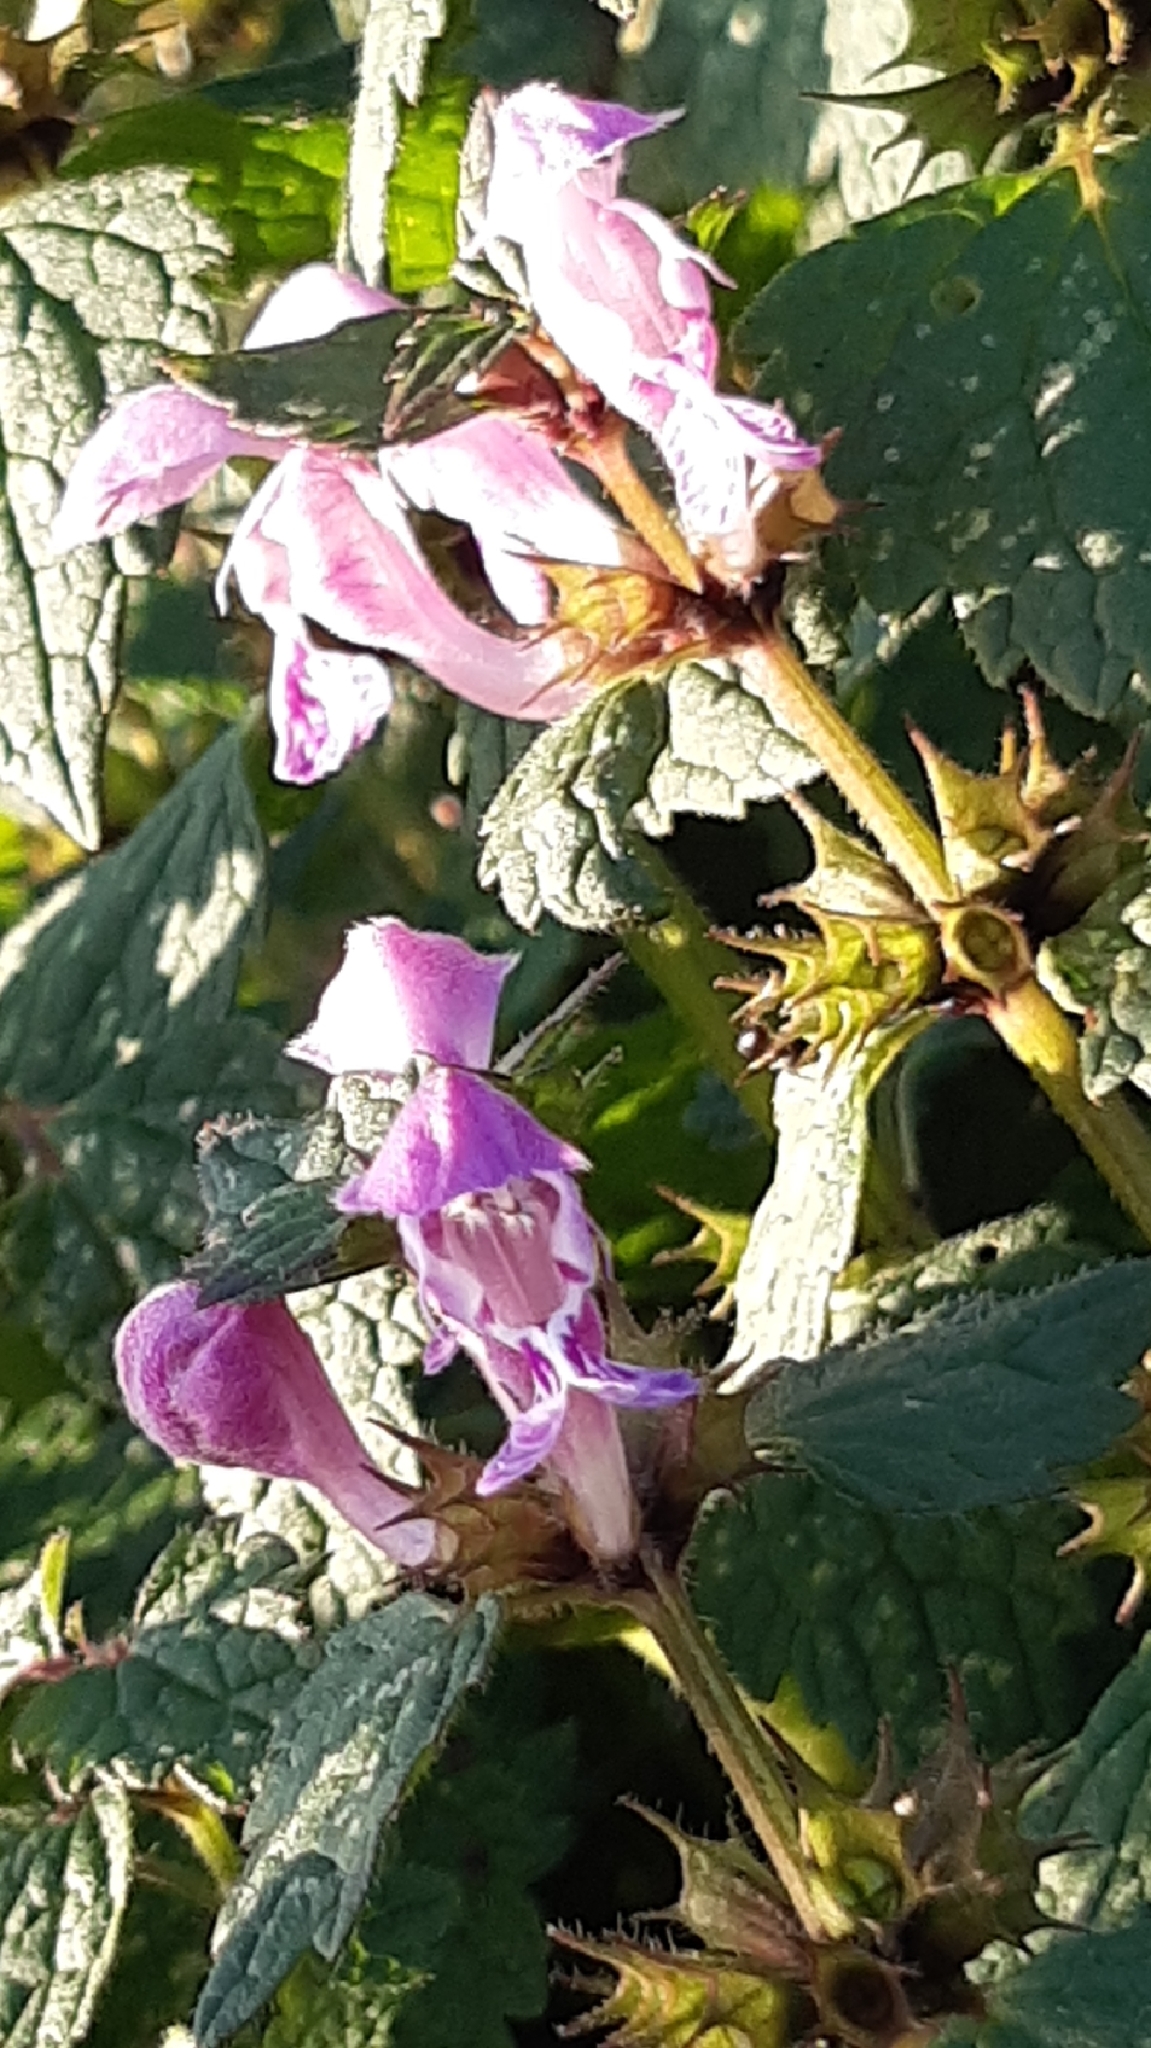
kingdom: Plantae
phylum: Tracheophyta
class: Magnoliopsida
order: Lamiales
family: Lamiaceae
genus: Lamium
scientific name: Lamium maculatum
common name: Spotted dead-nettle
